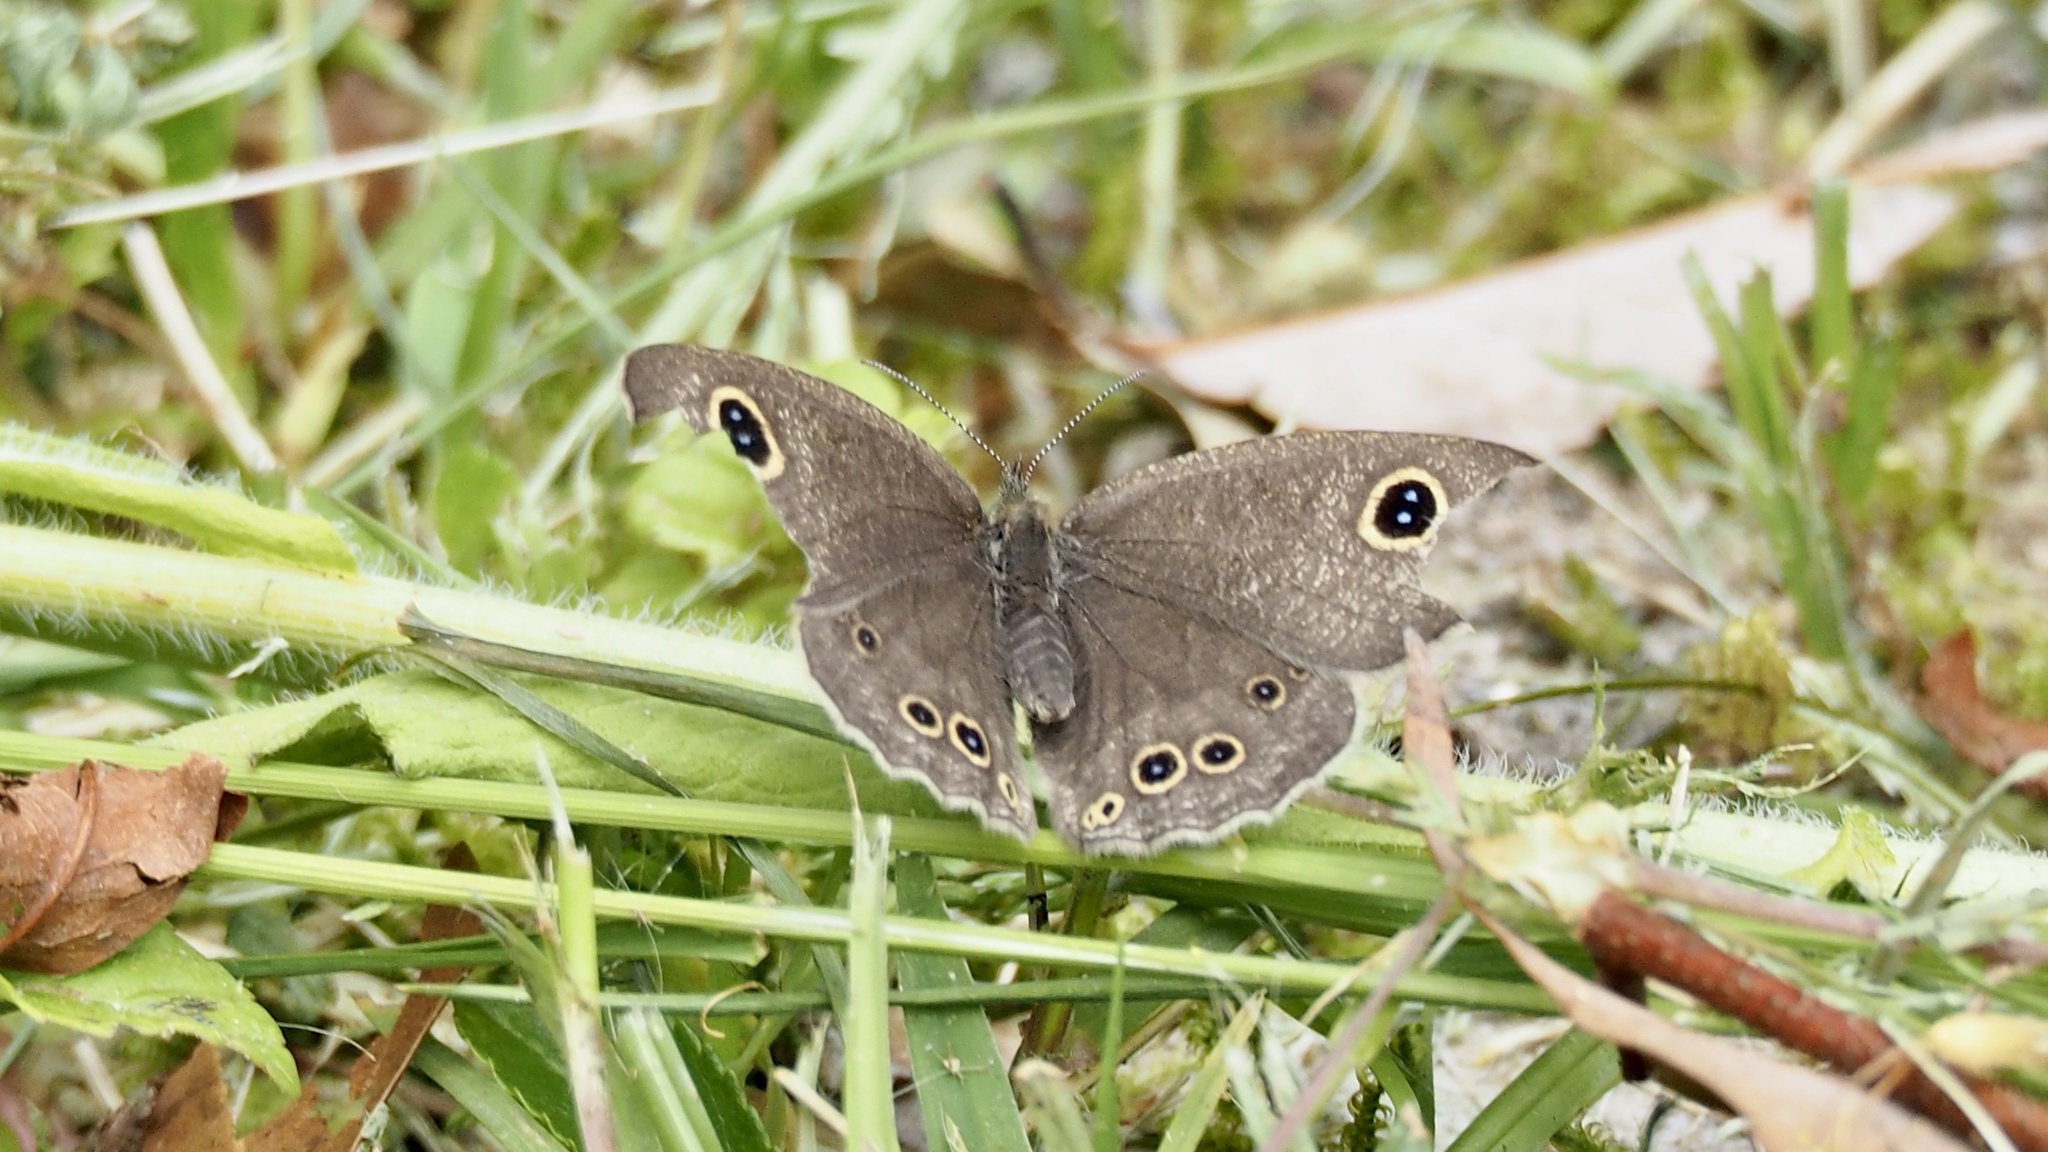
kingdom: Animalia
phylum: Arthropoda
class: Insecta
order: Lepidoptera
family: Nymphalidae
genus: Ypthima
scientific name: Ypthima argus
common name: Common fivering
